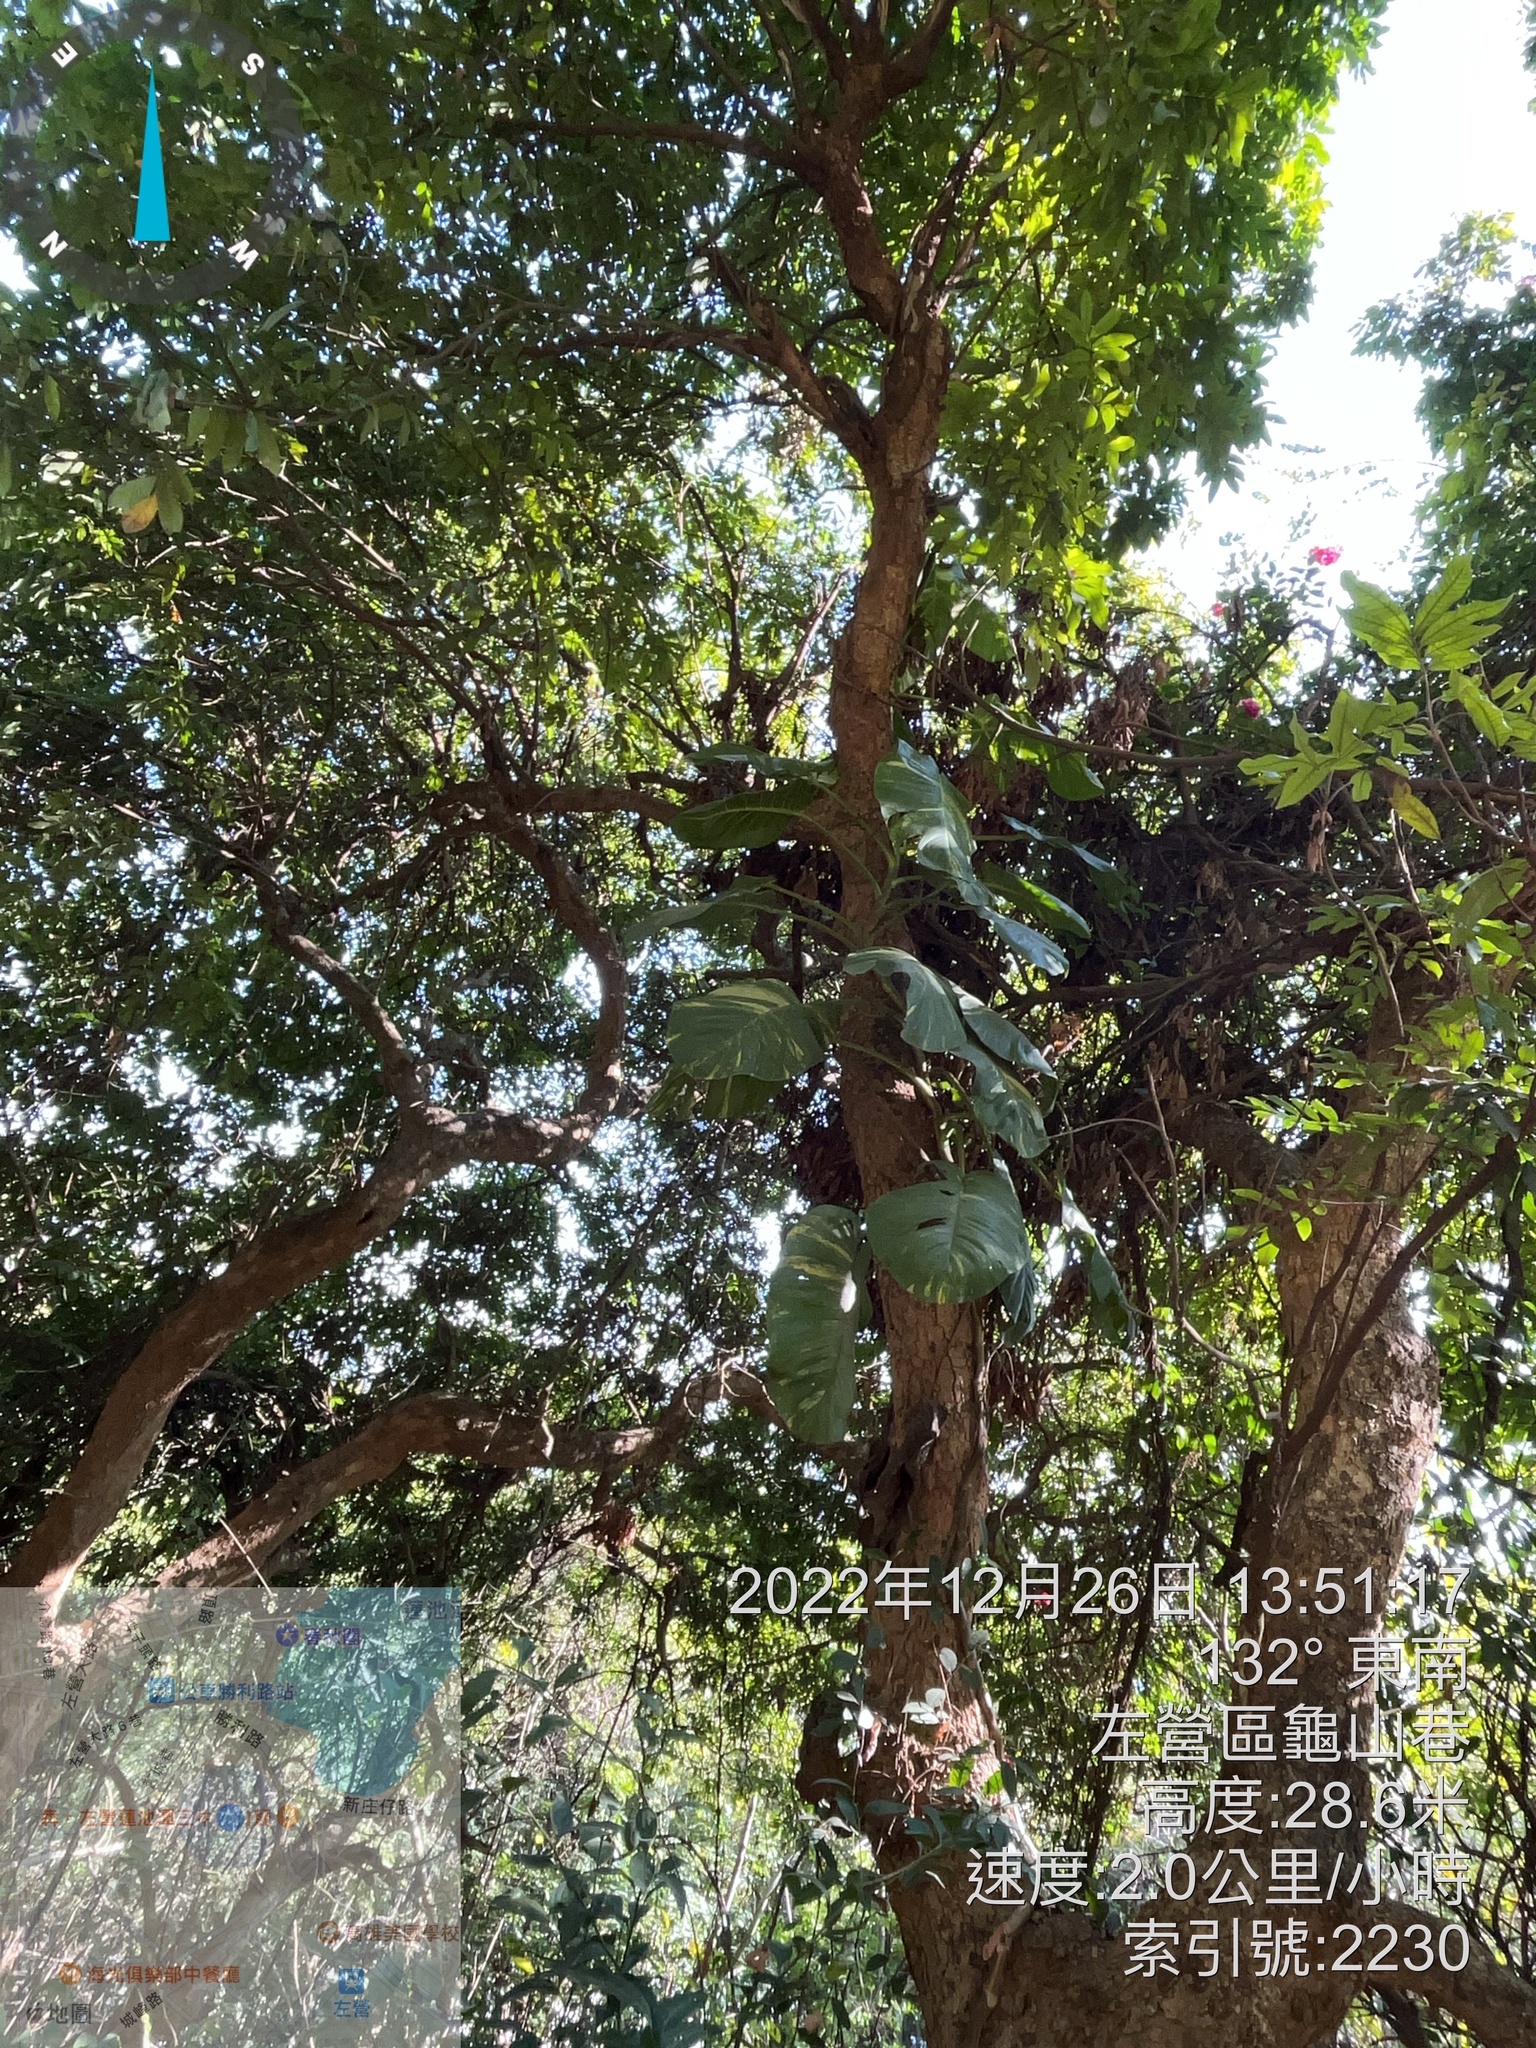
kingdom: Plantae
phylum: Tracheophyta
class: Liliopsida
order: Alismatales
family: Araceae
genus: Epipremnum
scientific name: Epipremnum aureum
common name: Golden hunter's-robe
